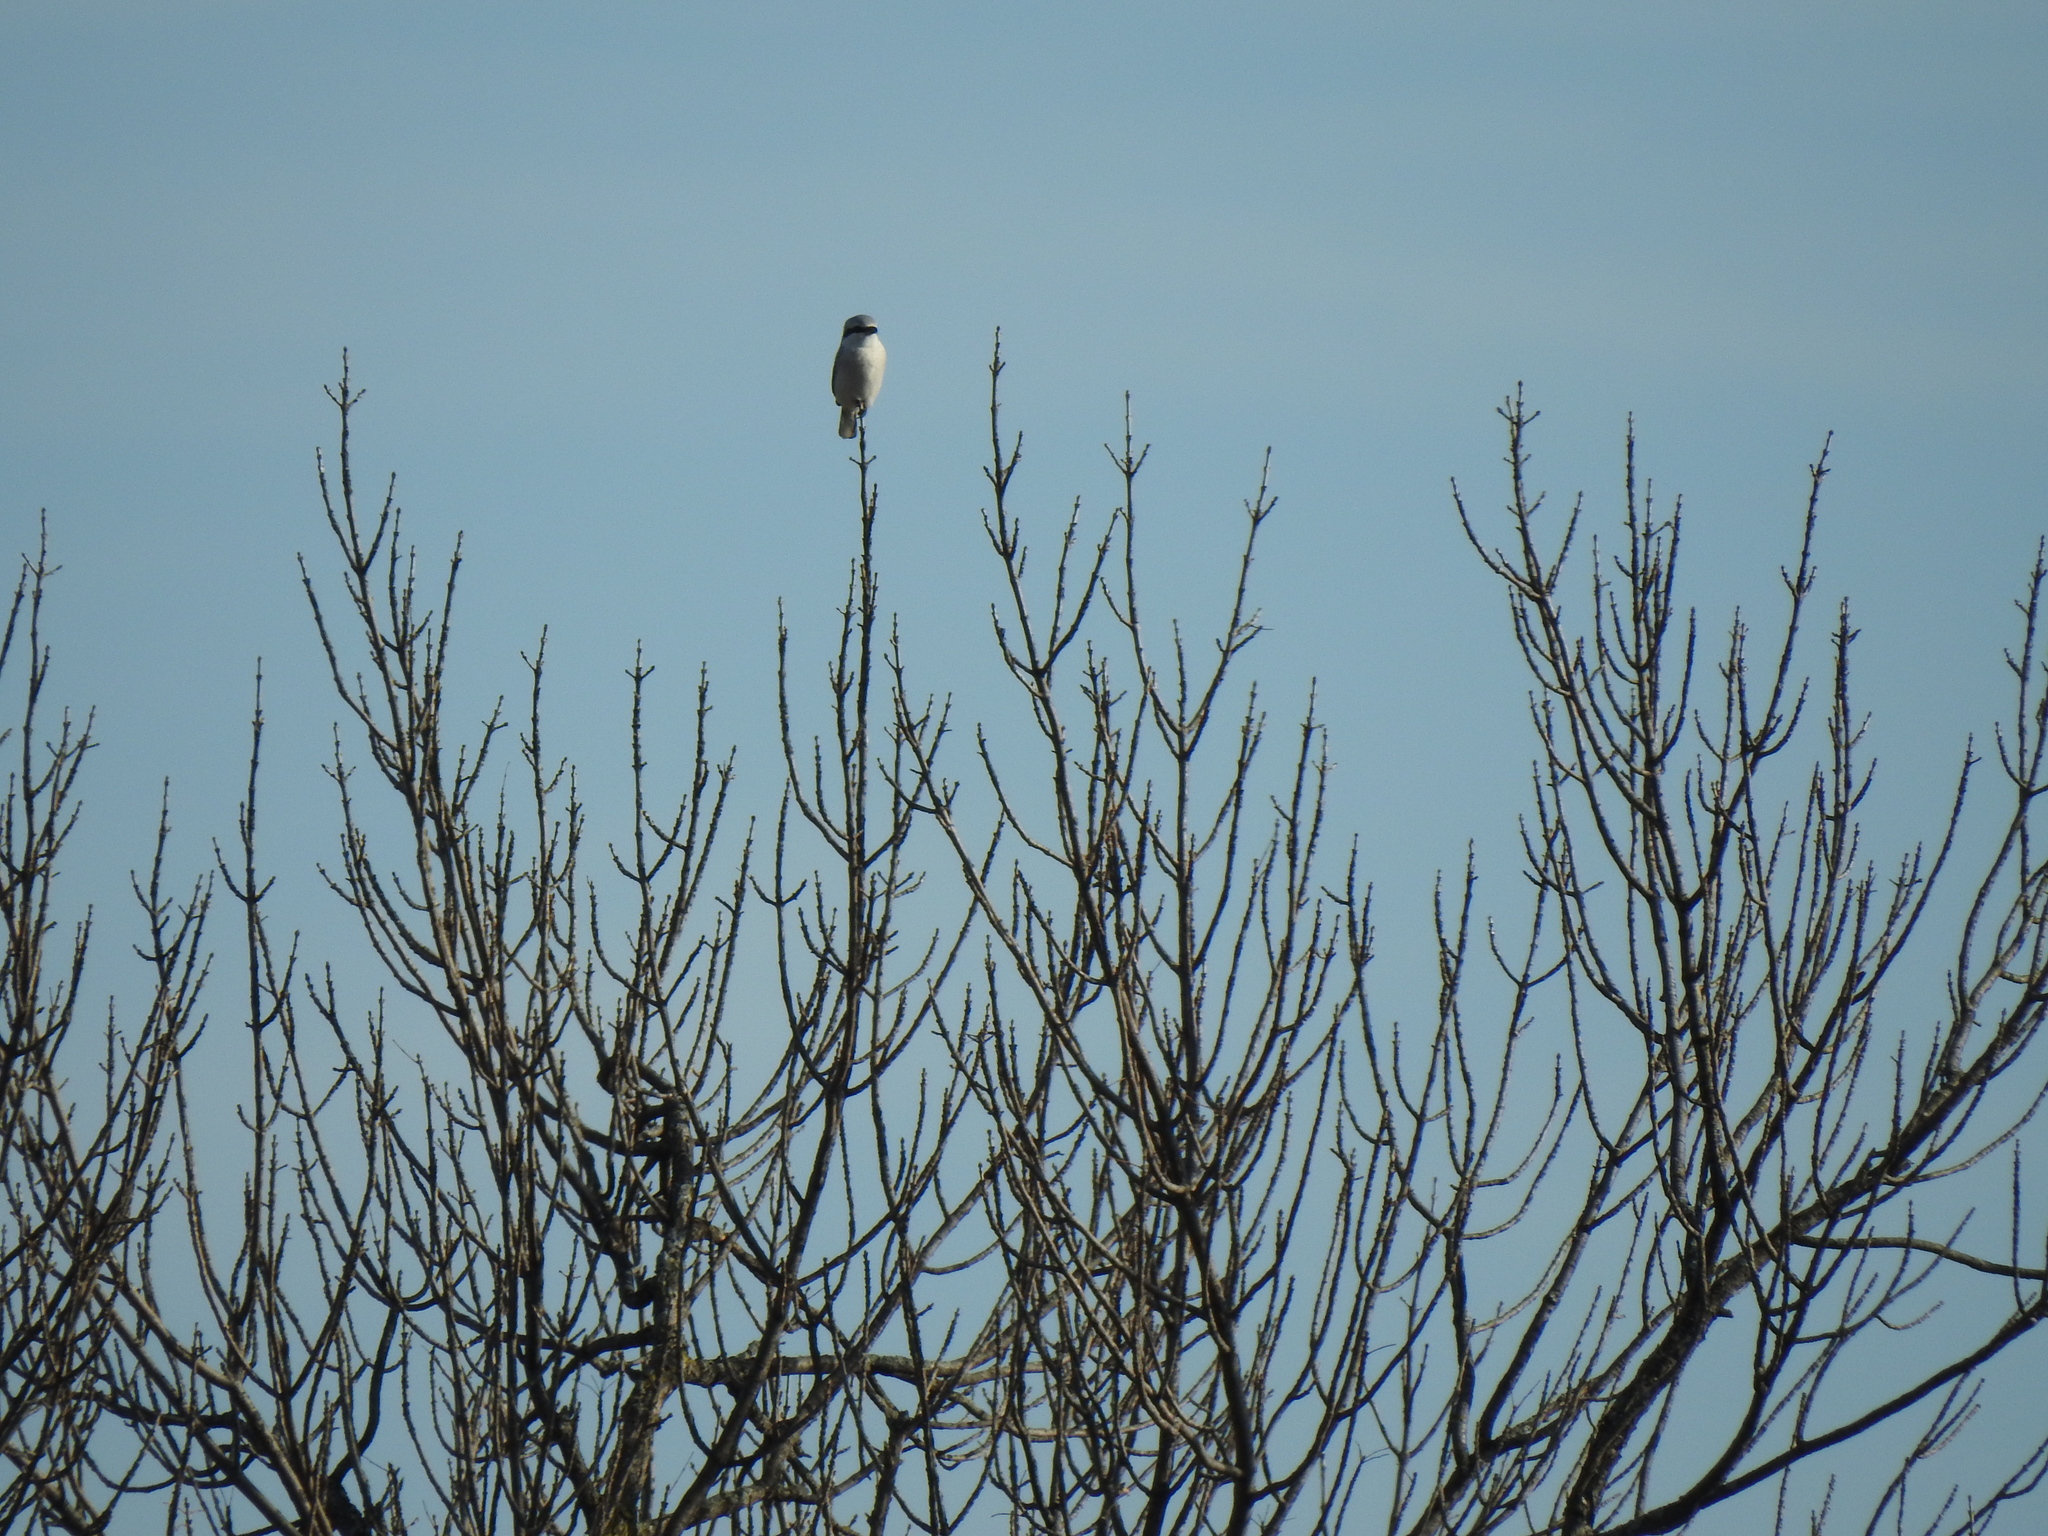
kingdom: Animalia
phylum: Chordata
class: Aves
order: Passeriformes
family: Laniidae
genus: Lanius
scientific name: Lanius borealis
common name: Northern shrike
